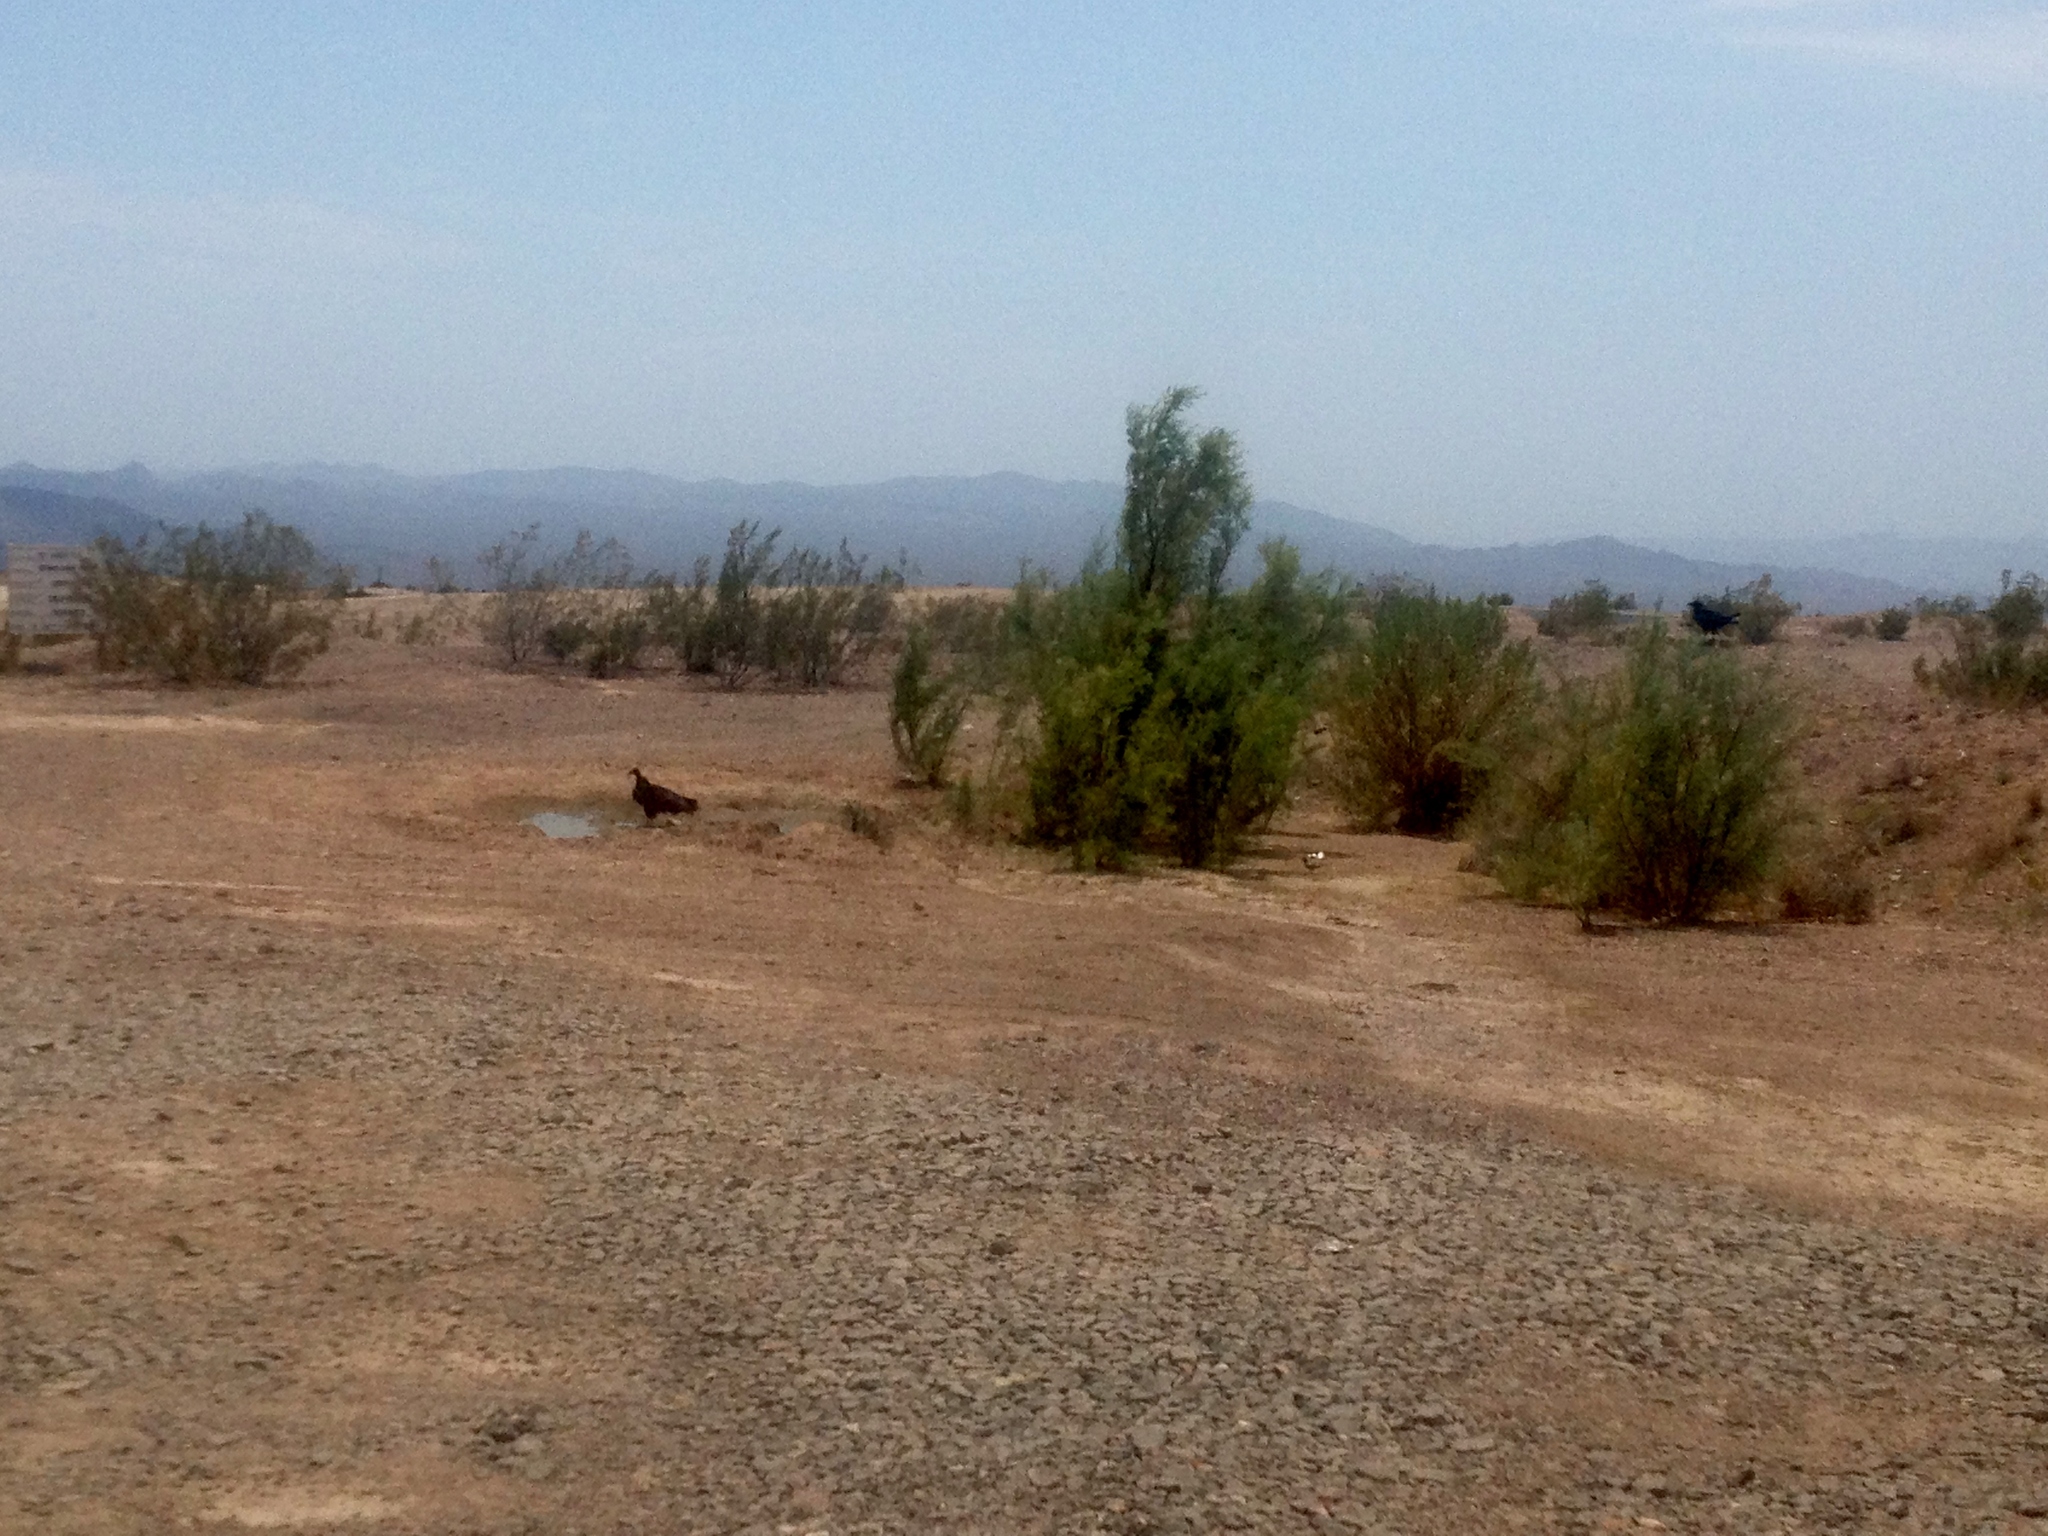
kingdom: Animalia
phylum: Chordata
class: Aves
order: Accipitriformes
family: Cathartidae
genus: Cathartes
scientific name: Cathartes aura
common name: Turkey vulture
